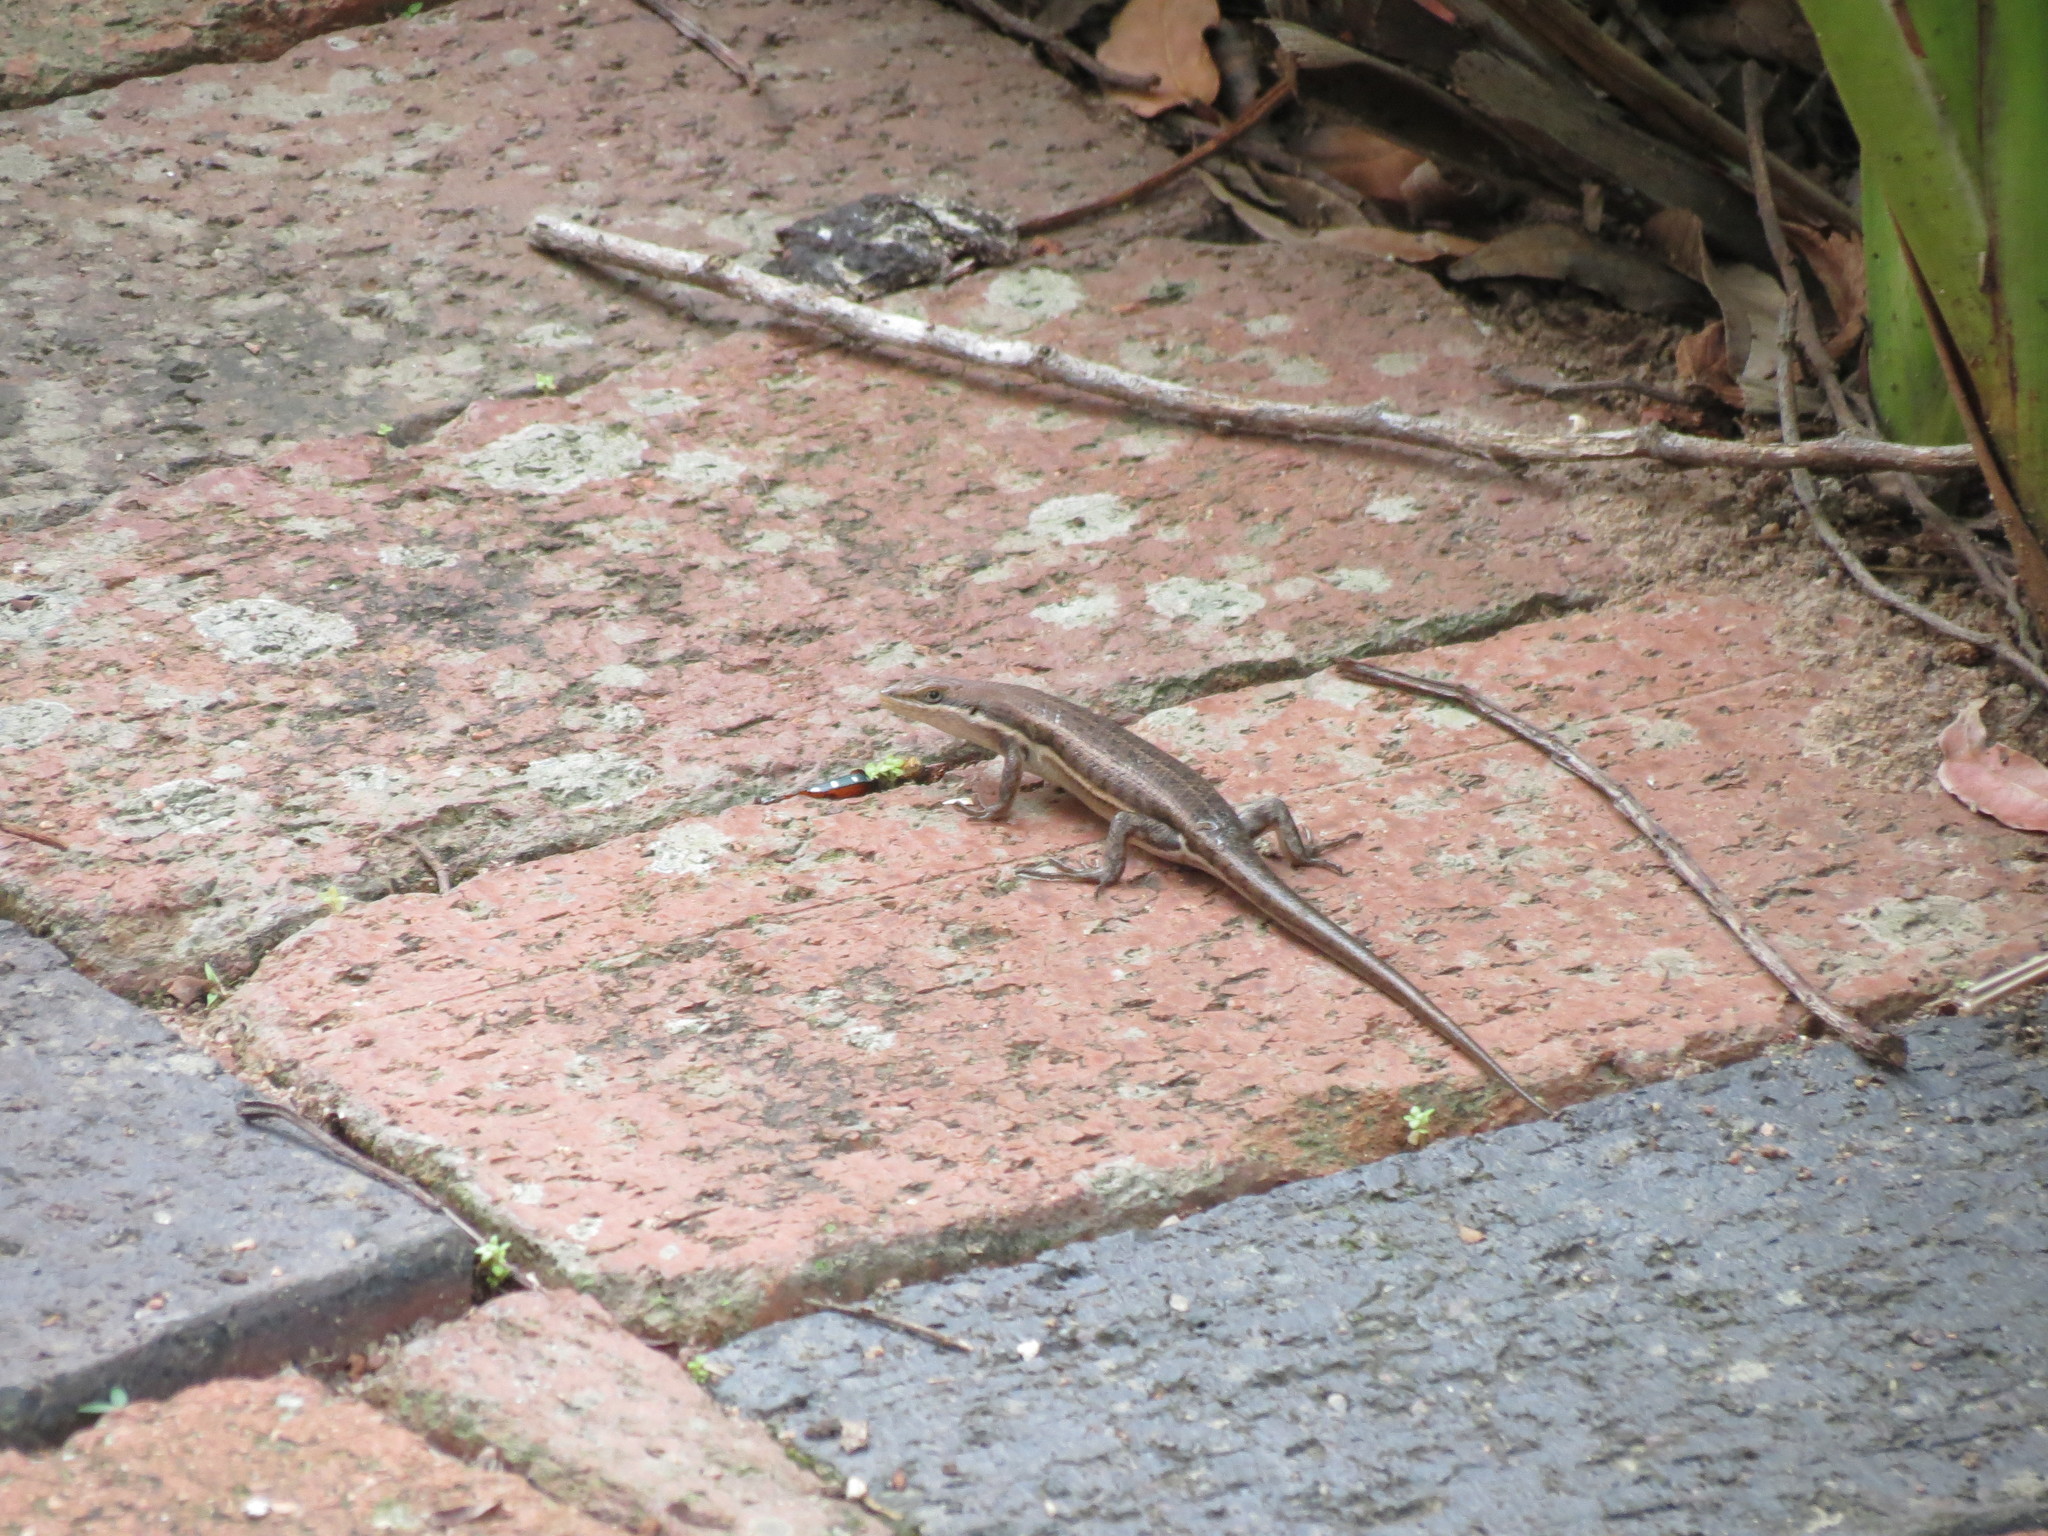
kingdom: Animalia
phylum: Chordata
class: Squamata
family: Scincidae
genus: Trachylepis
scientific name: Trachylepis varia
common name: Eastern variable skink
